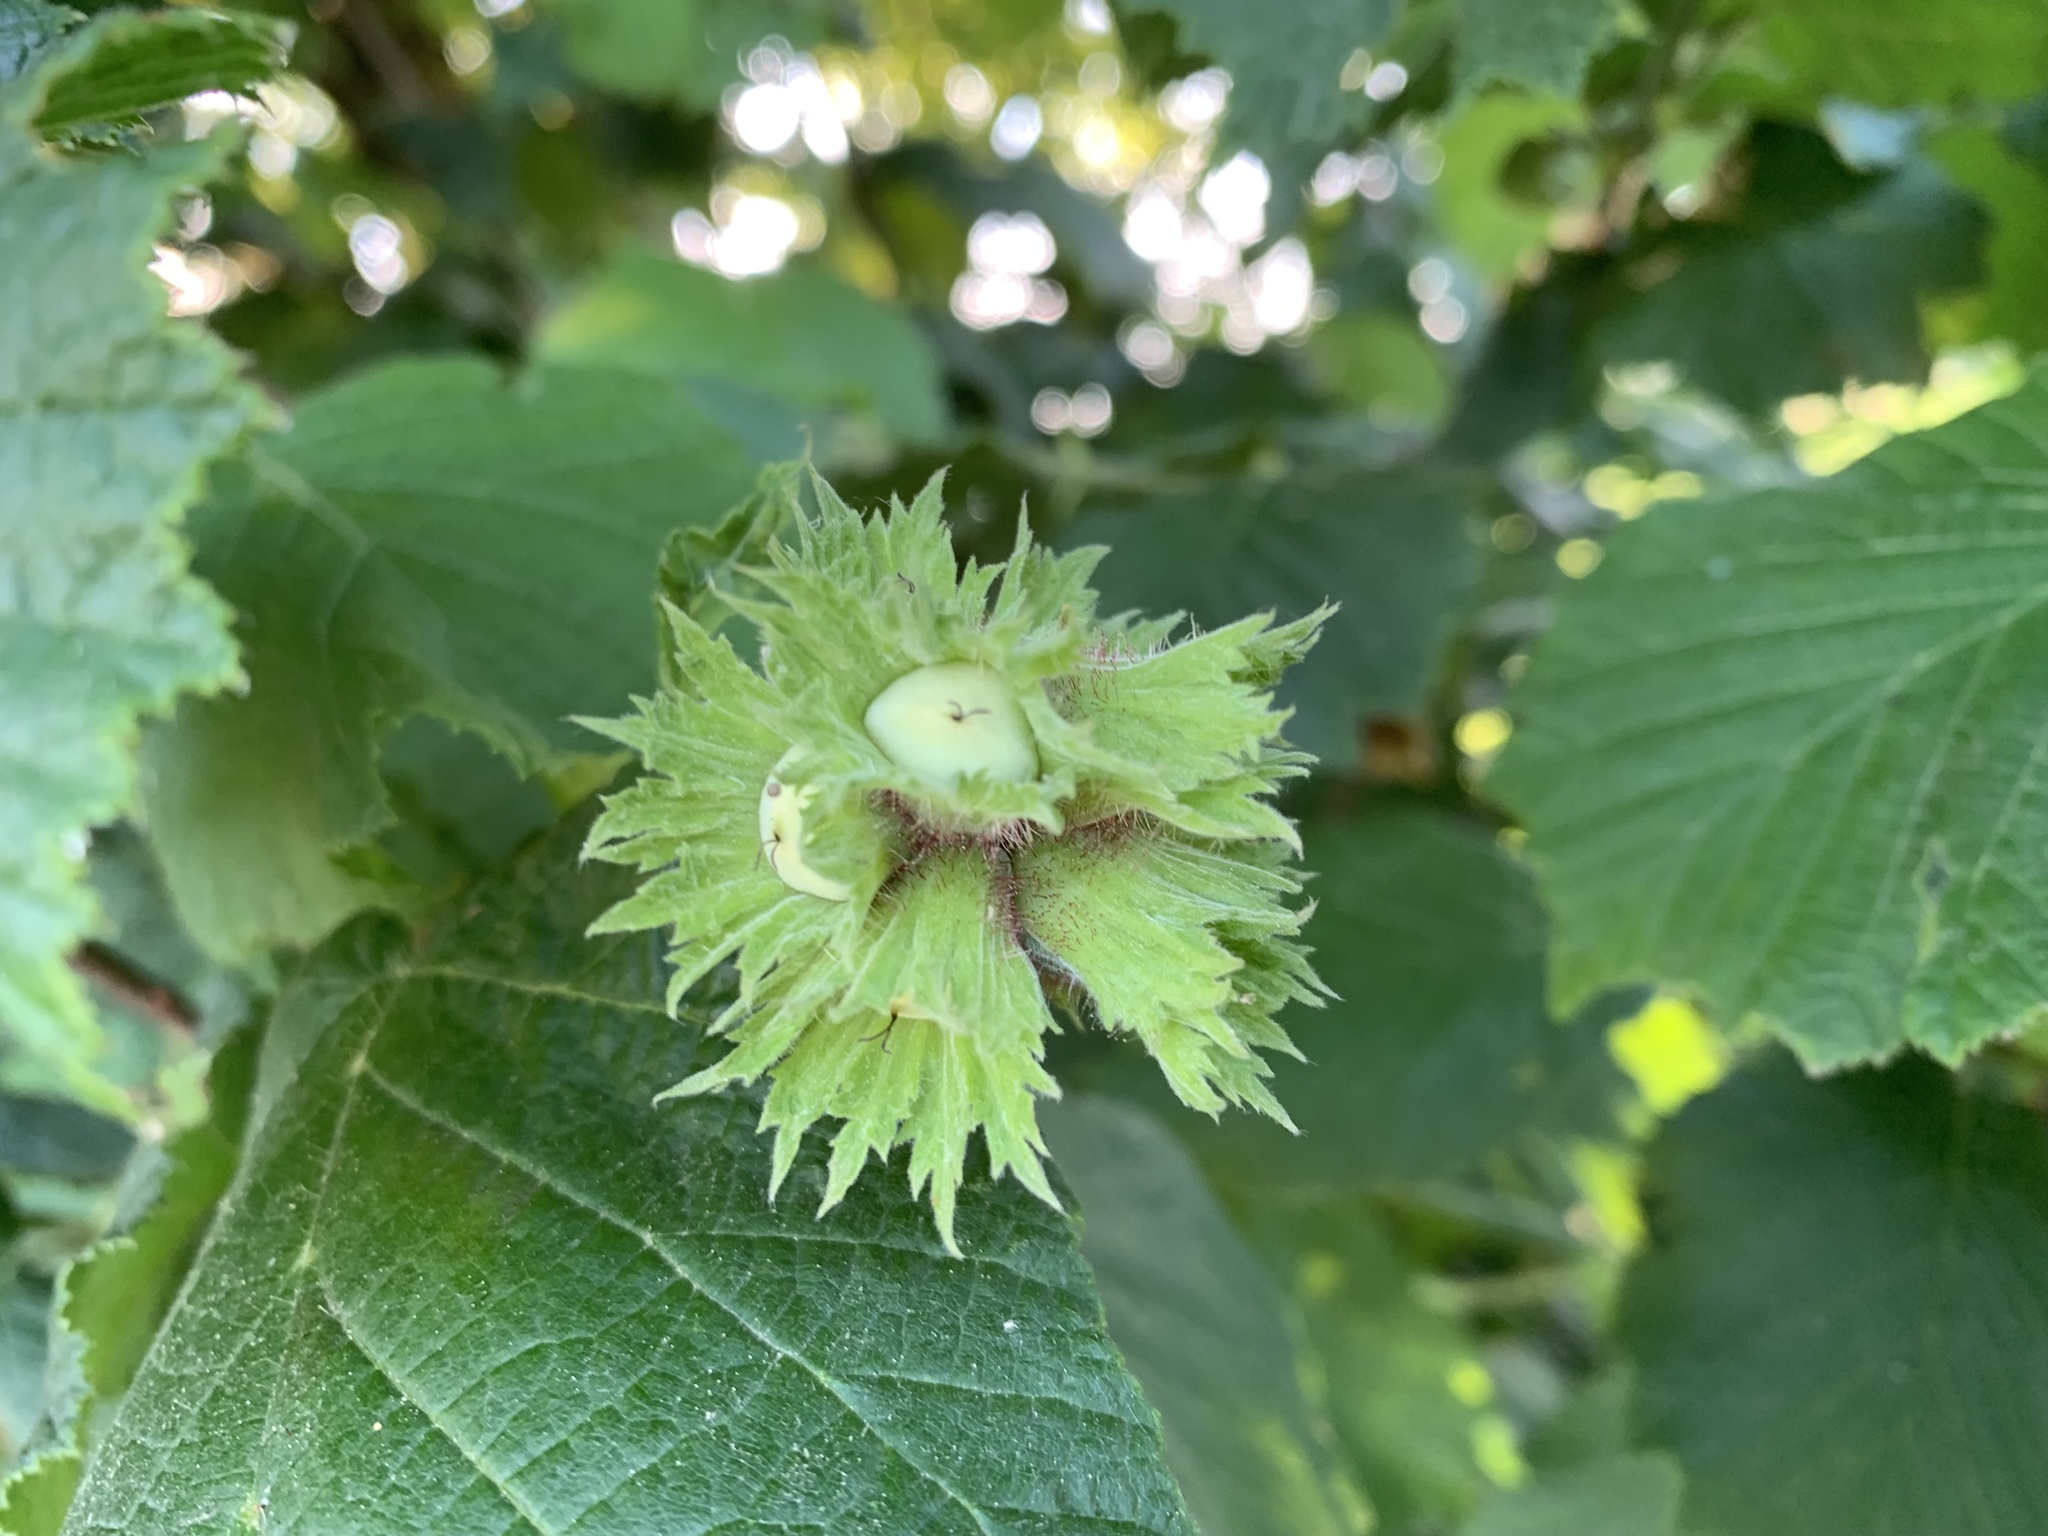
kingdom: Plantae
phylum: Tracheophyta
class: Magnoliopsida
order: Fagales
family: Betulaceae
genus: Corylus
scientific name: Corylus avellana
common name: European hazel
